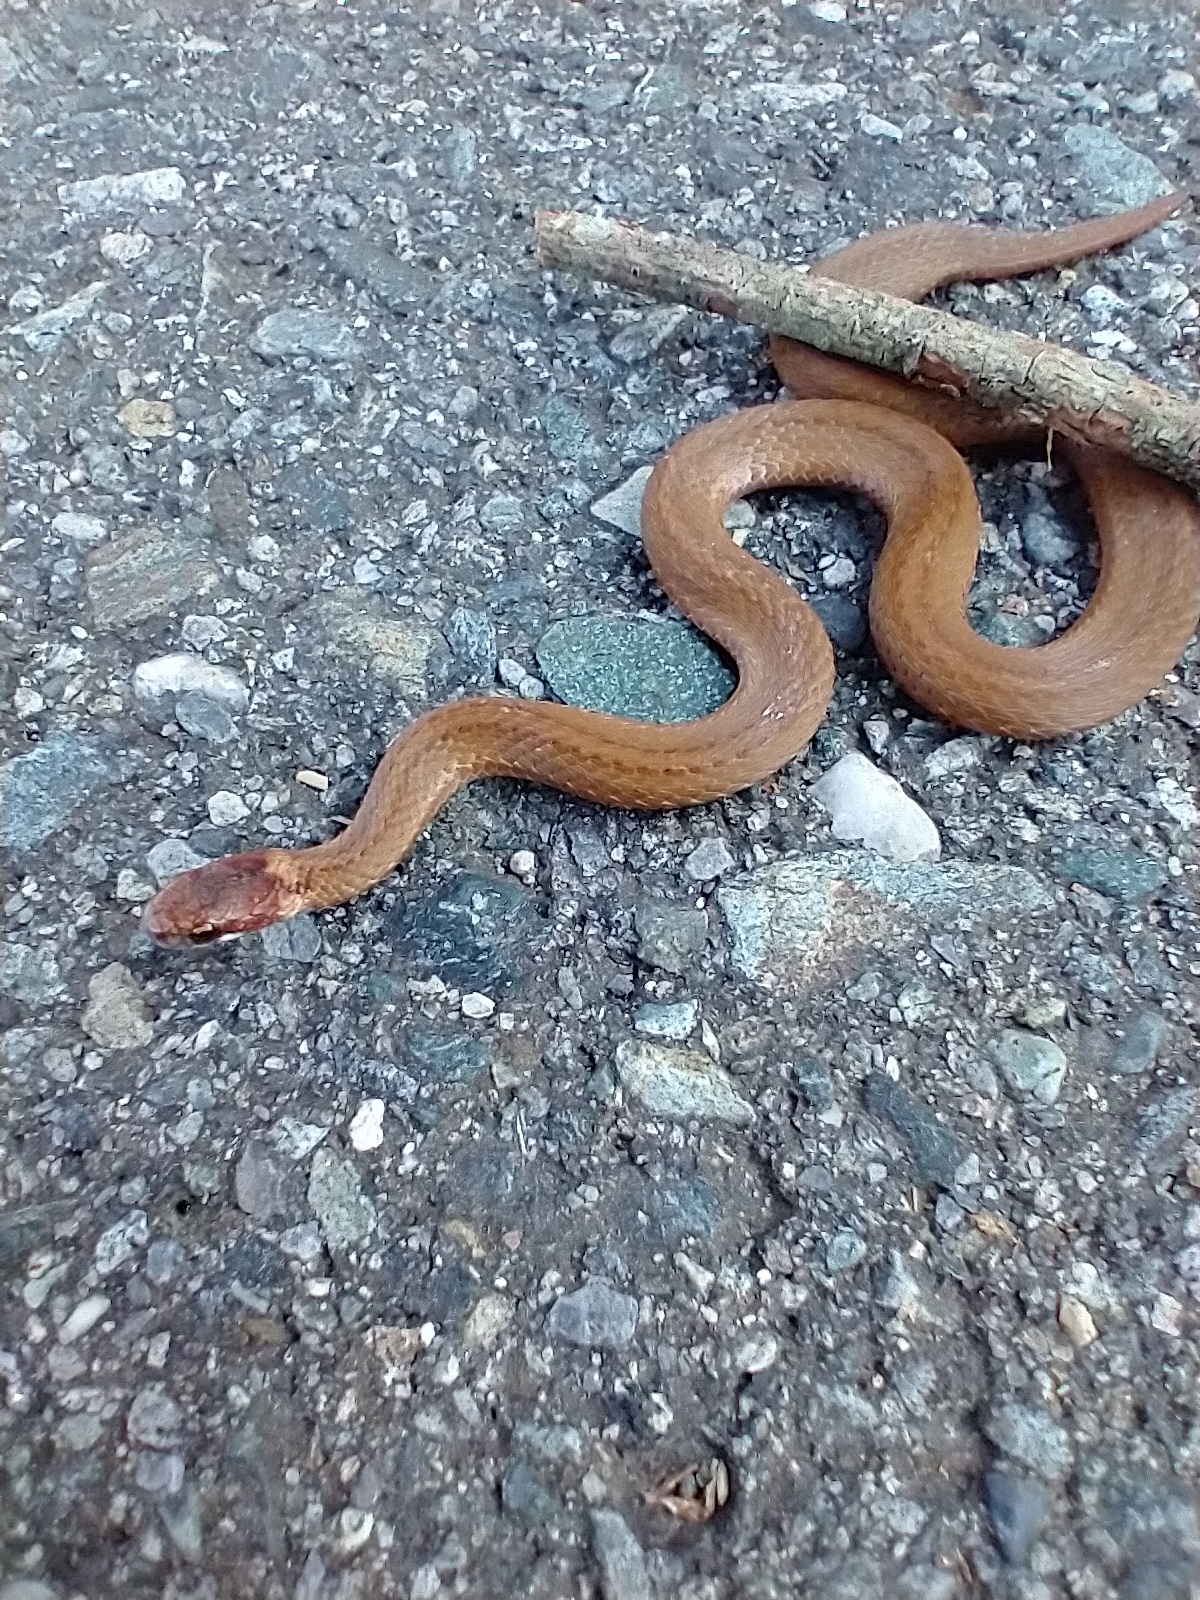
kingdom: Animalia
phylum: Chordata
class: Squamata
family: Colubridae
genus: Storeria
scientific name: Storeria occipitomaculata
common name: Redbelly snake
